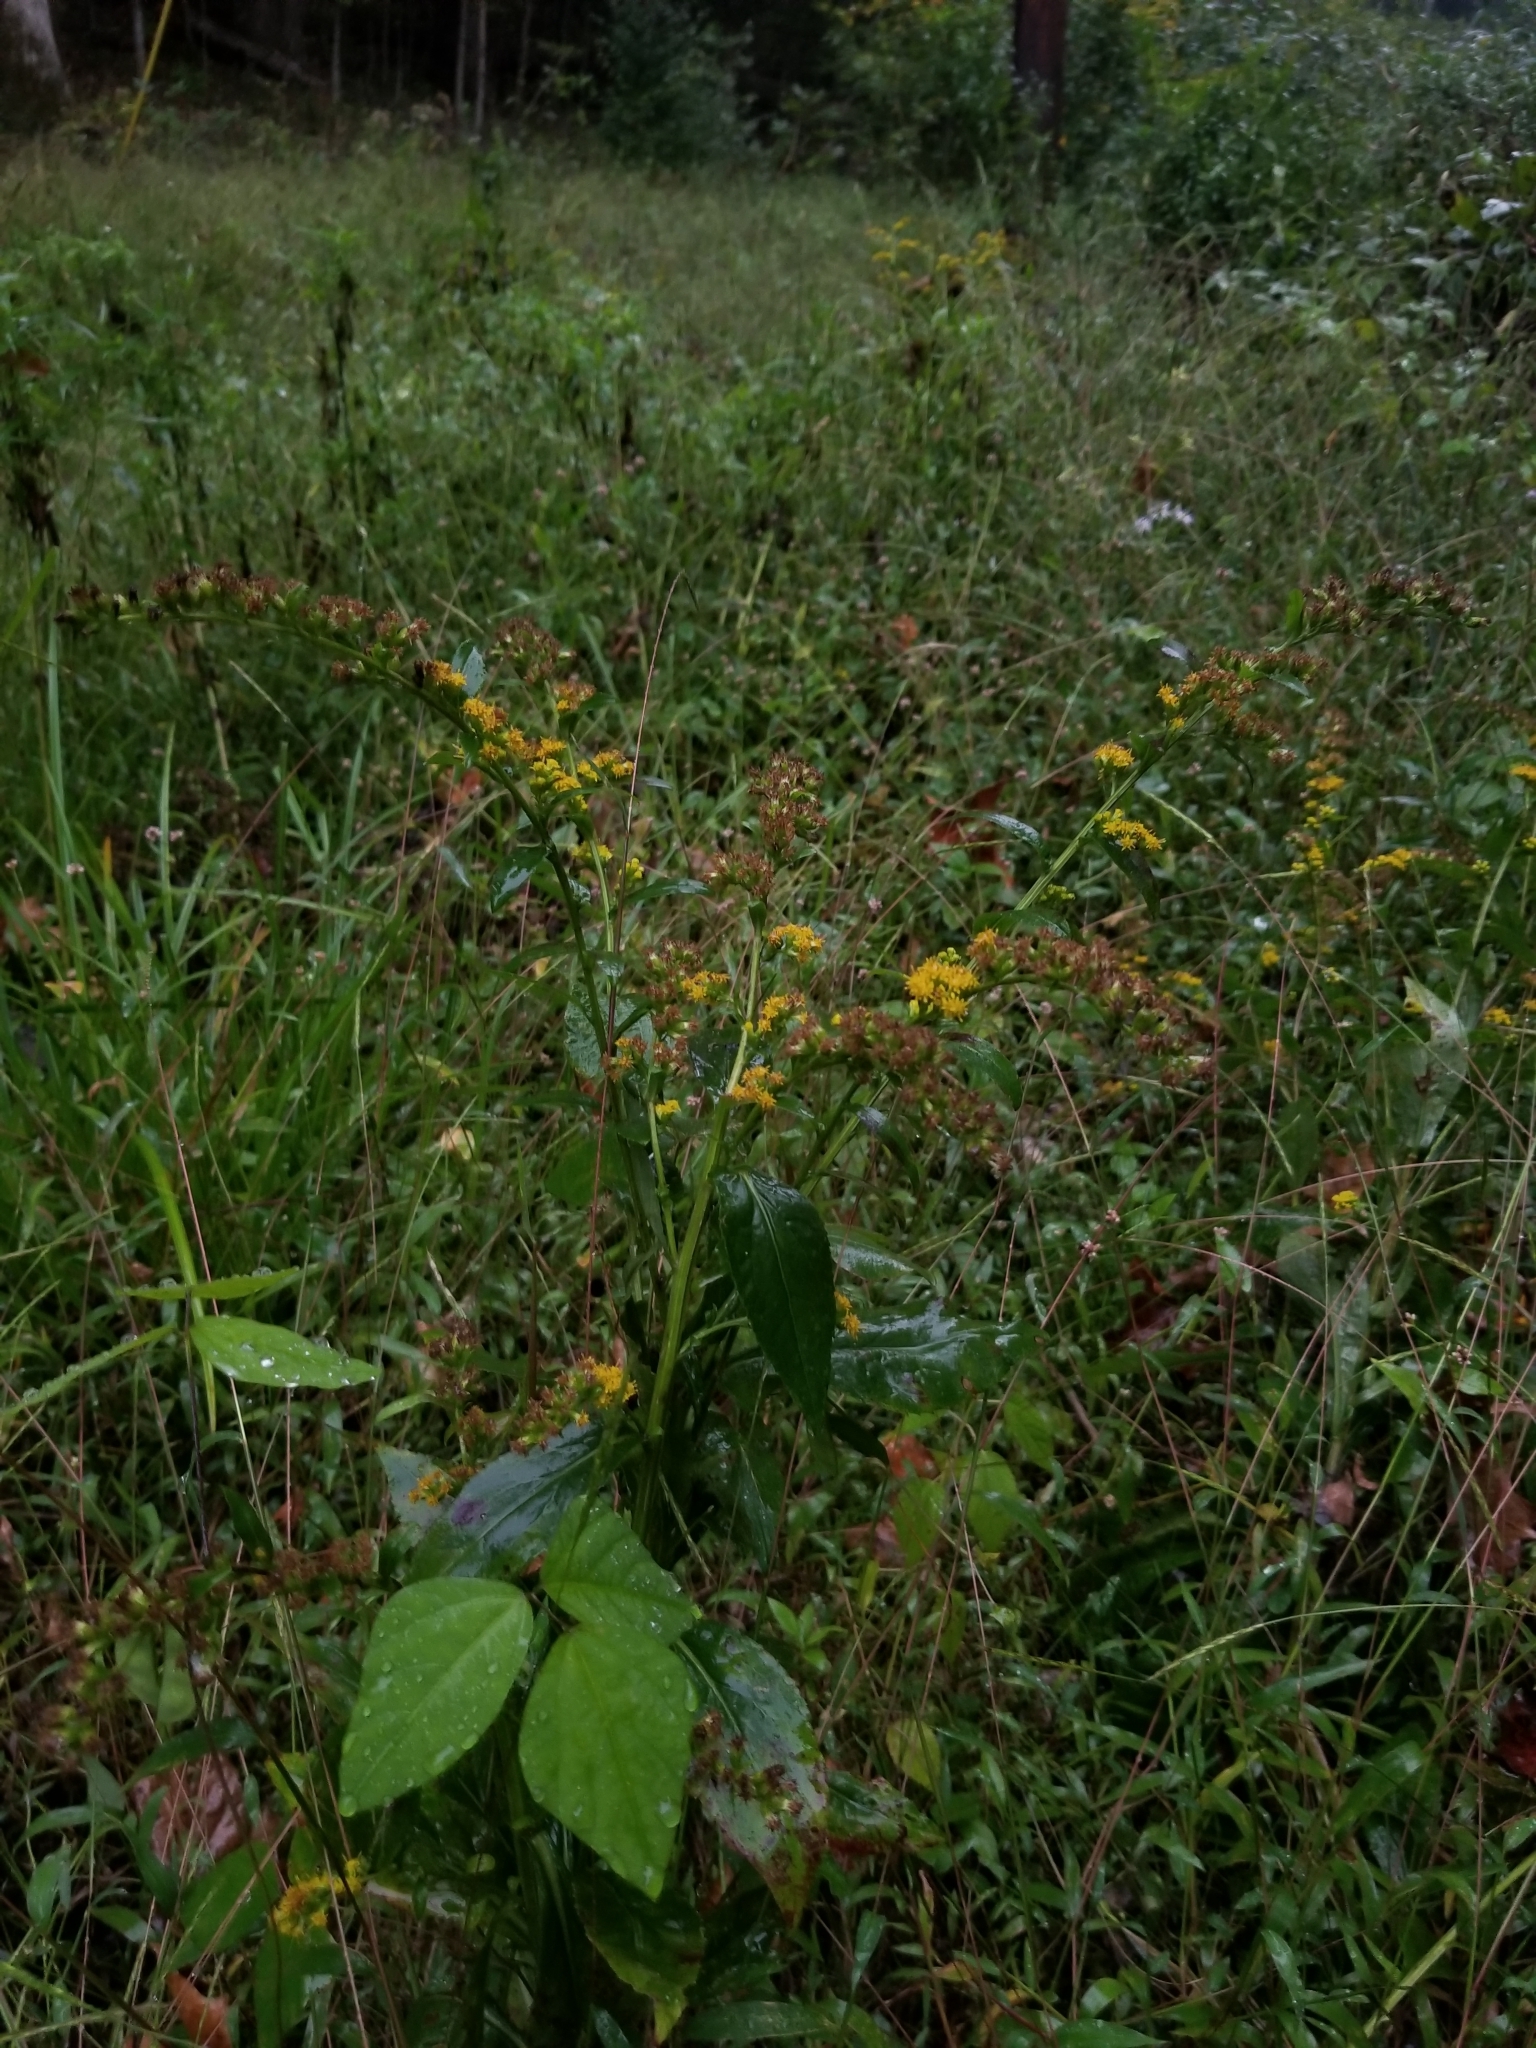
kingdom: Plantae
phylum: Tracheophyta
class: Magnoliopsida
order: Asterales
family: Asteraceae
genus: Solidago
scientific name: Solidago patula
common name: Rough-leaf goldenrod
